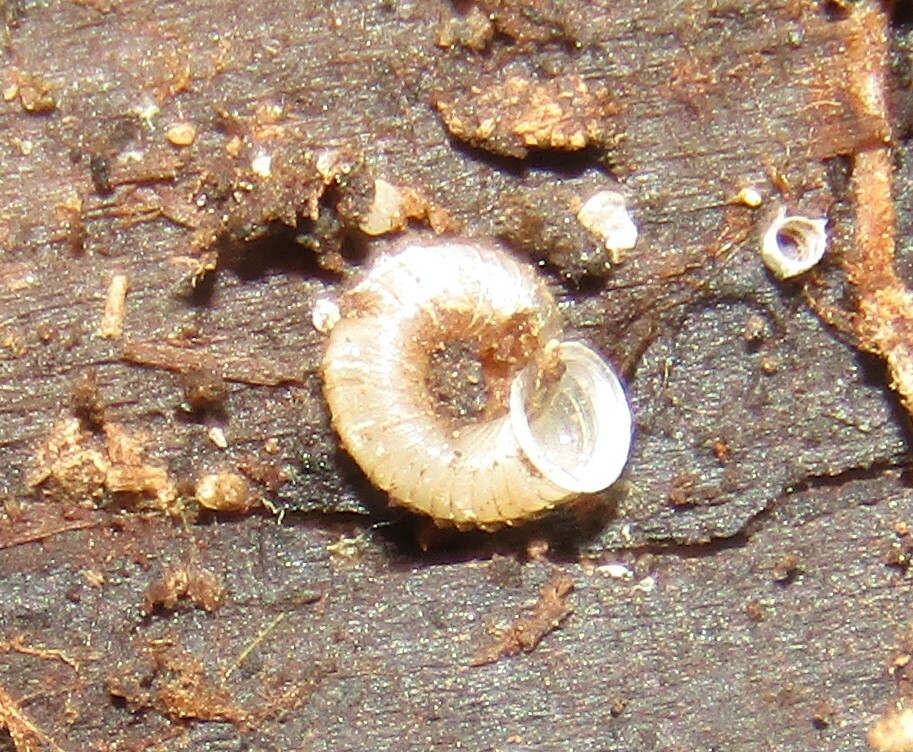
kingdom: Animalia
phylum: Mollusca
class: Gastropoda
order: Stylommatophora
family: Valloniidae
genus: Vallonia
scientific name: Vallonia costata
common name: Ribbed grass snail
